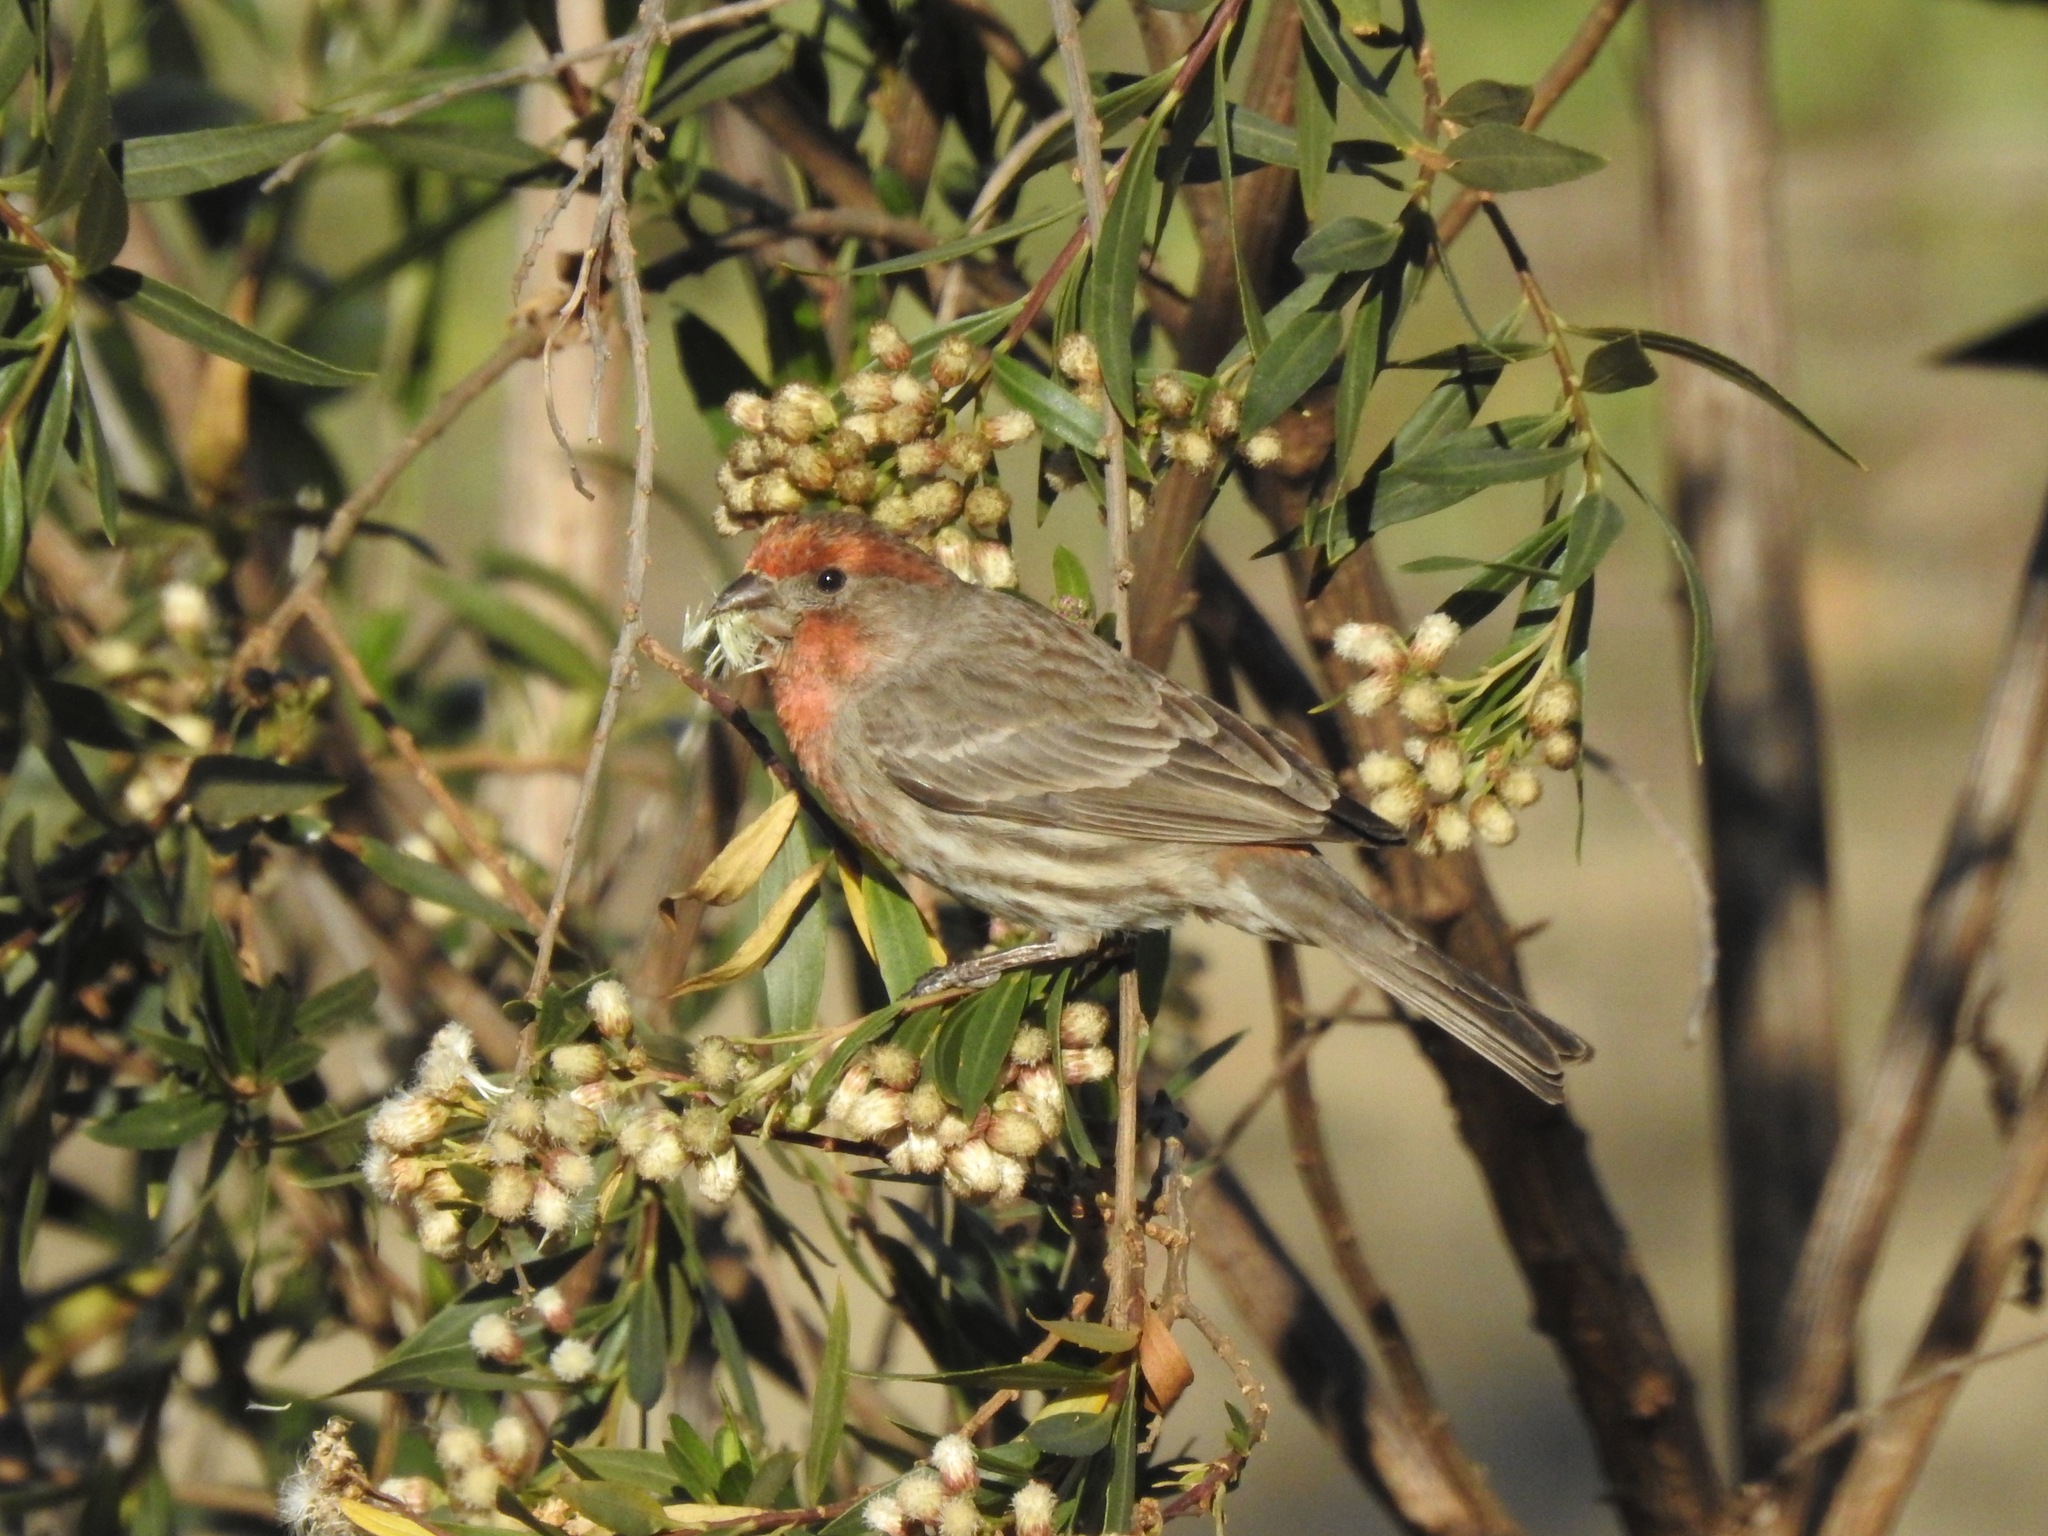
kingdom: Animalia
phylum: Chordata
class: Aves
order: Passeriformes
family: Fringillidae
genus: Haemorhous
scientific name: Haemorhous mexicanus
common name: House finch
